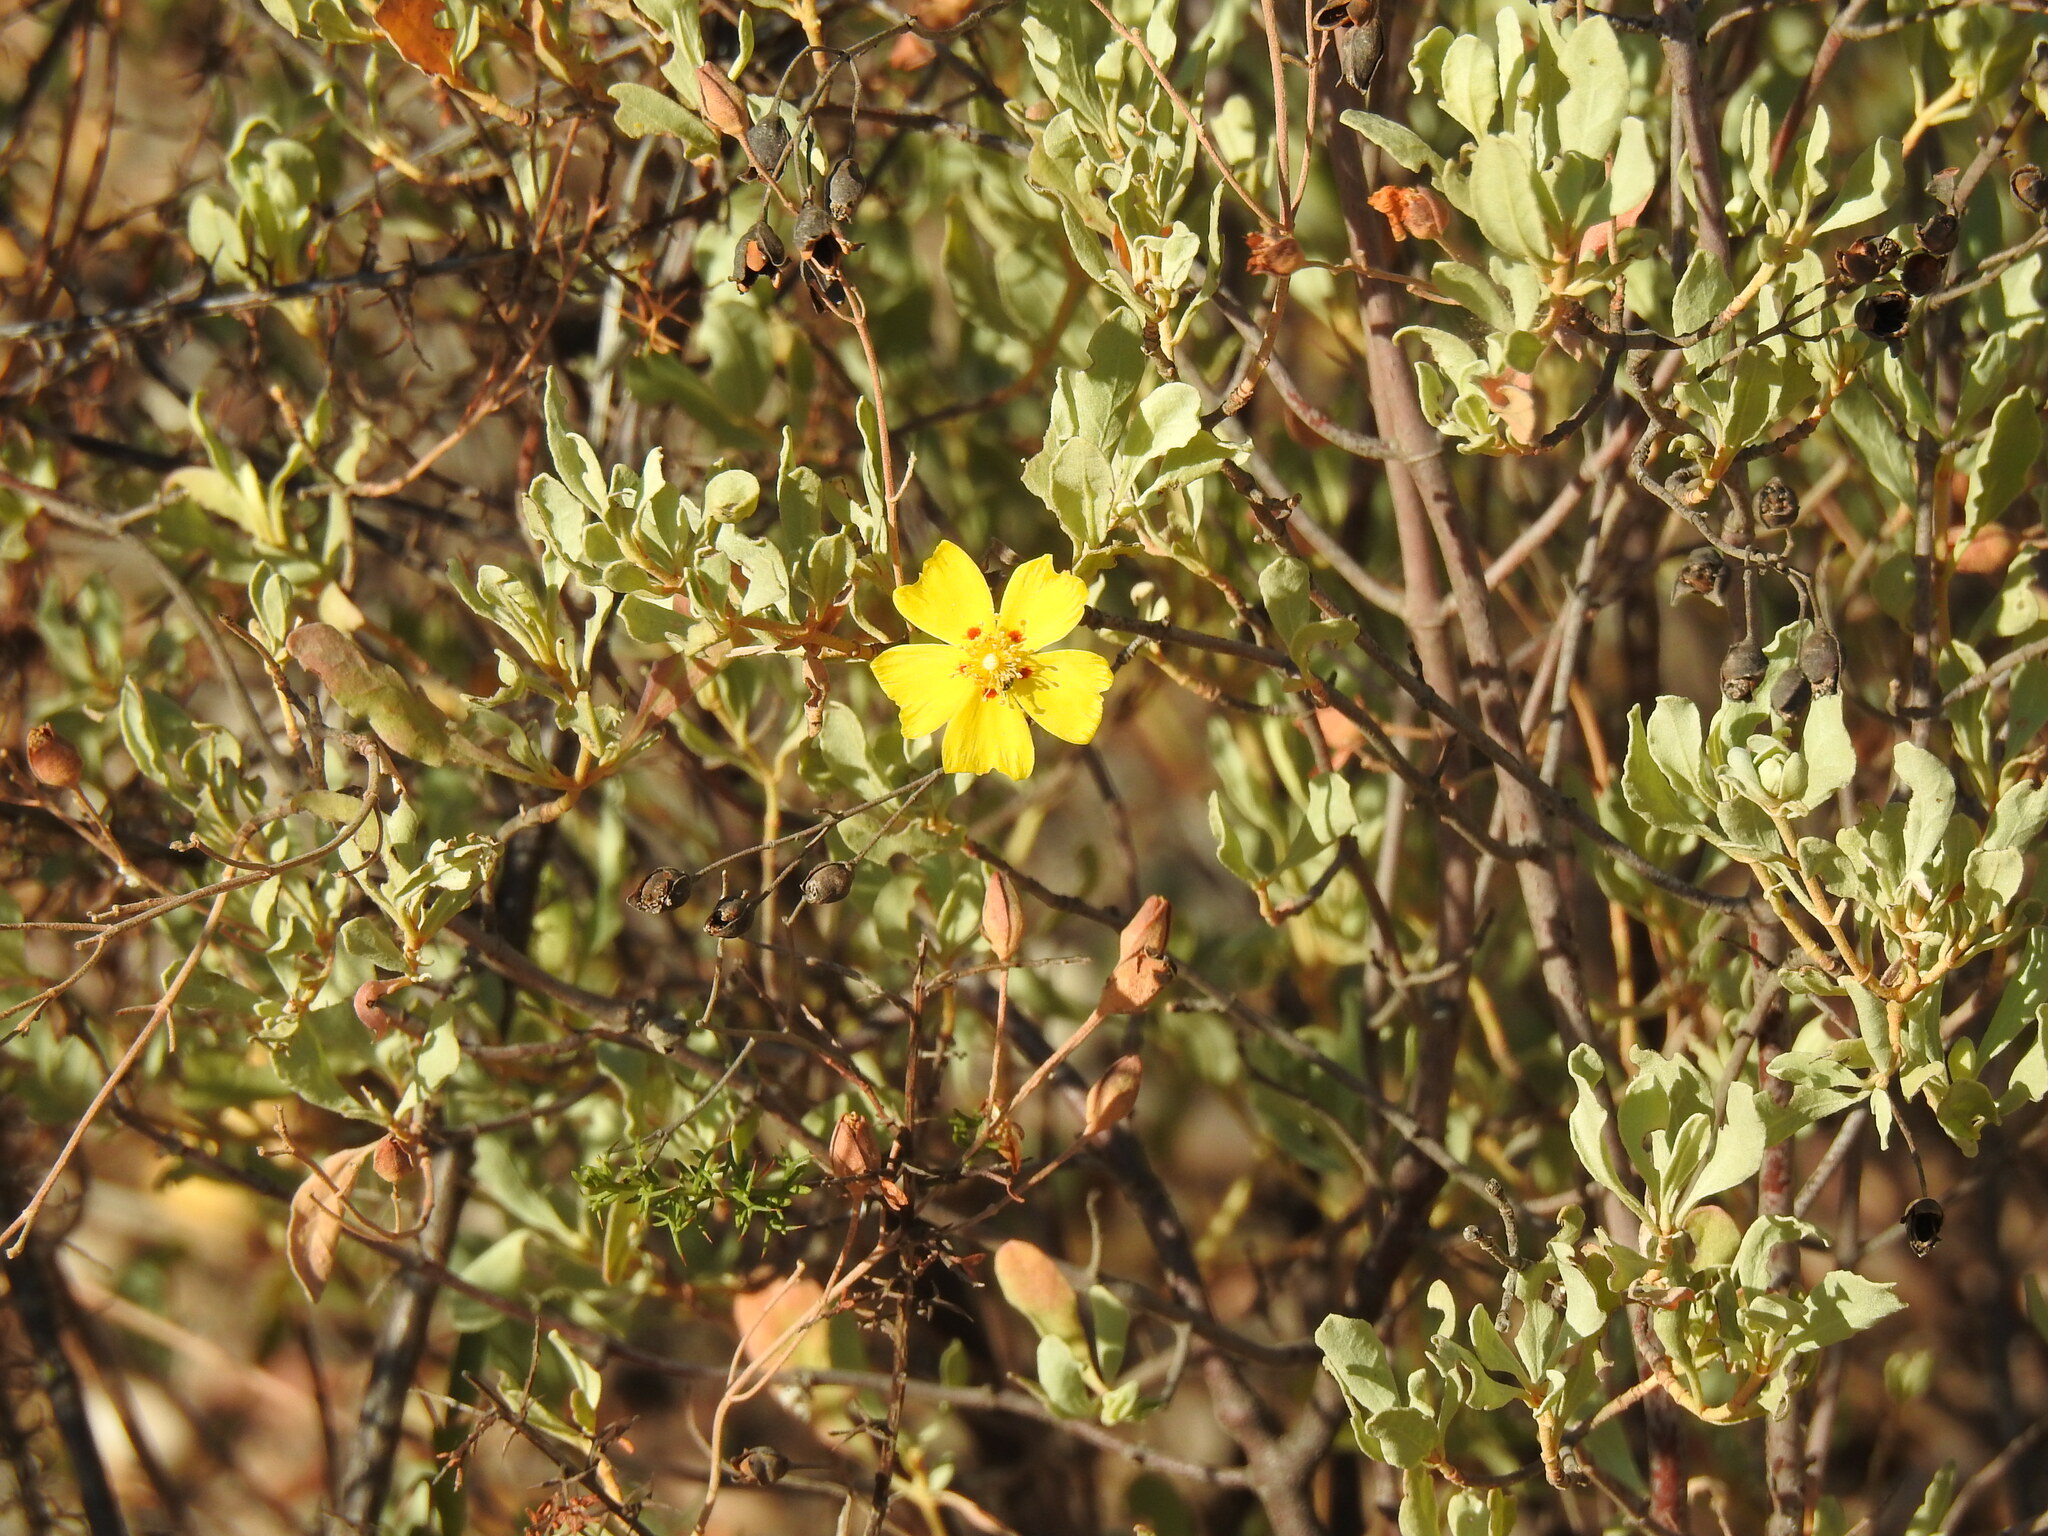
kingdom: Plantae
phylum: Tracheophyta
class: Magnoliopsida
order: Malvales
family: Cistaceae
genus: Halimium
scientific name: Halimium halimifolium
